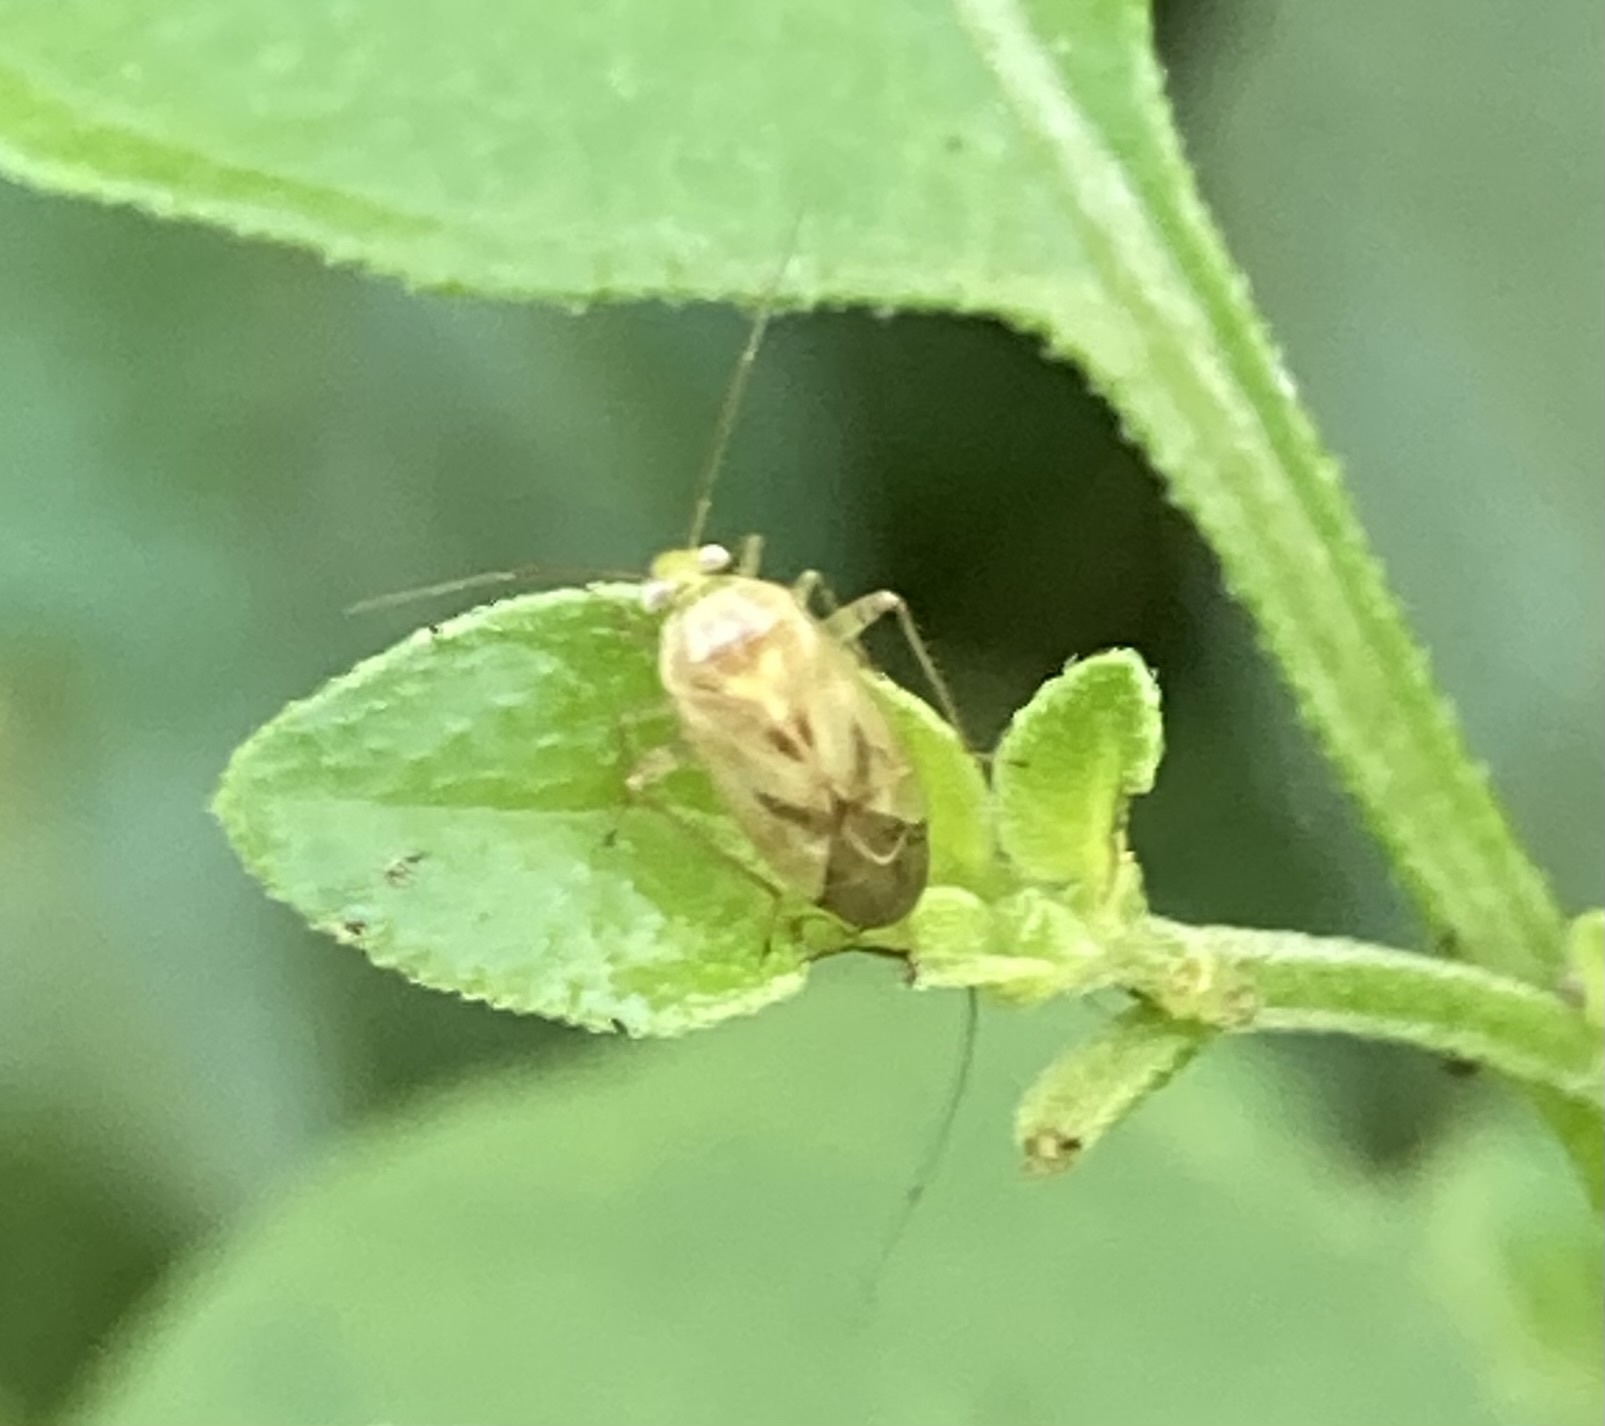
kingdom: Animalia
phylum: Arthropoda
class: Insecta
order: Hemiptera
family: Miridae
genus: Taylorilygus
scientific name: Taylorilygus apicalis
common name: Plant bug
